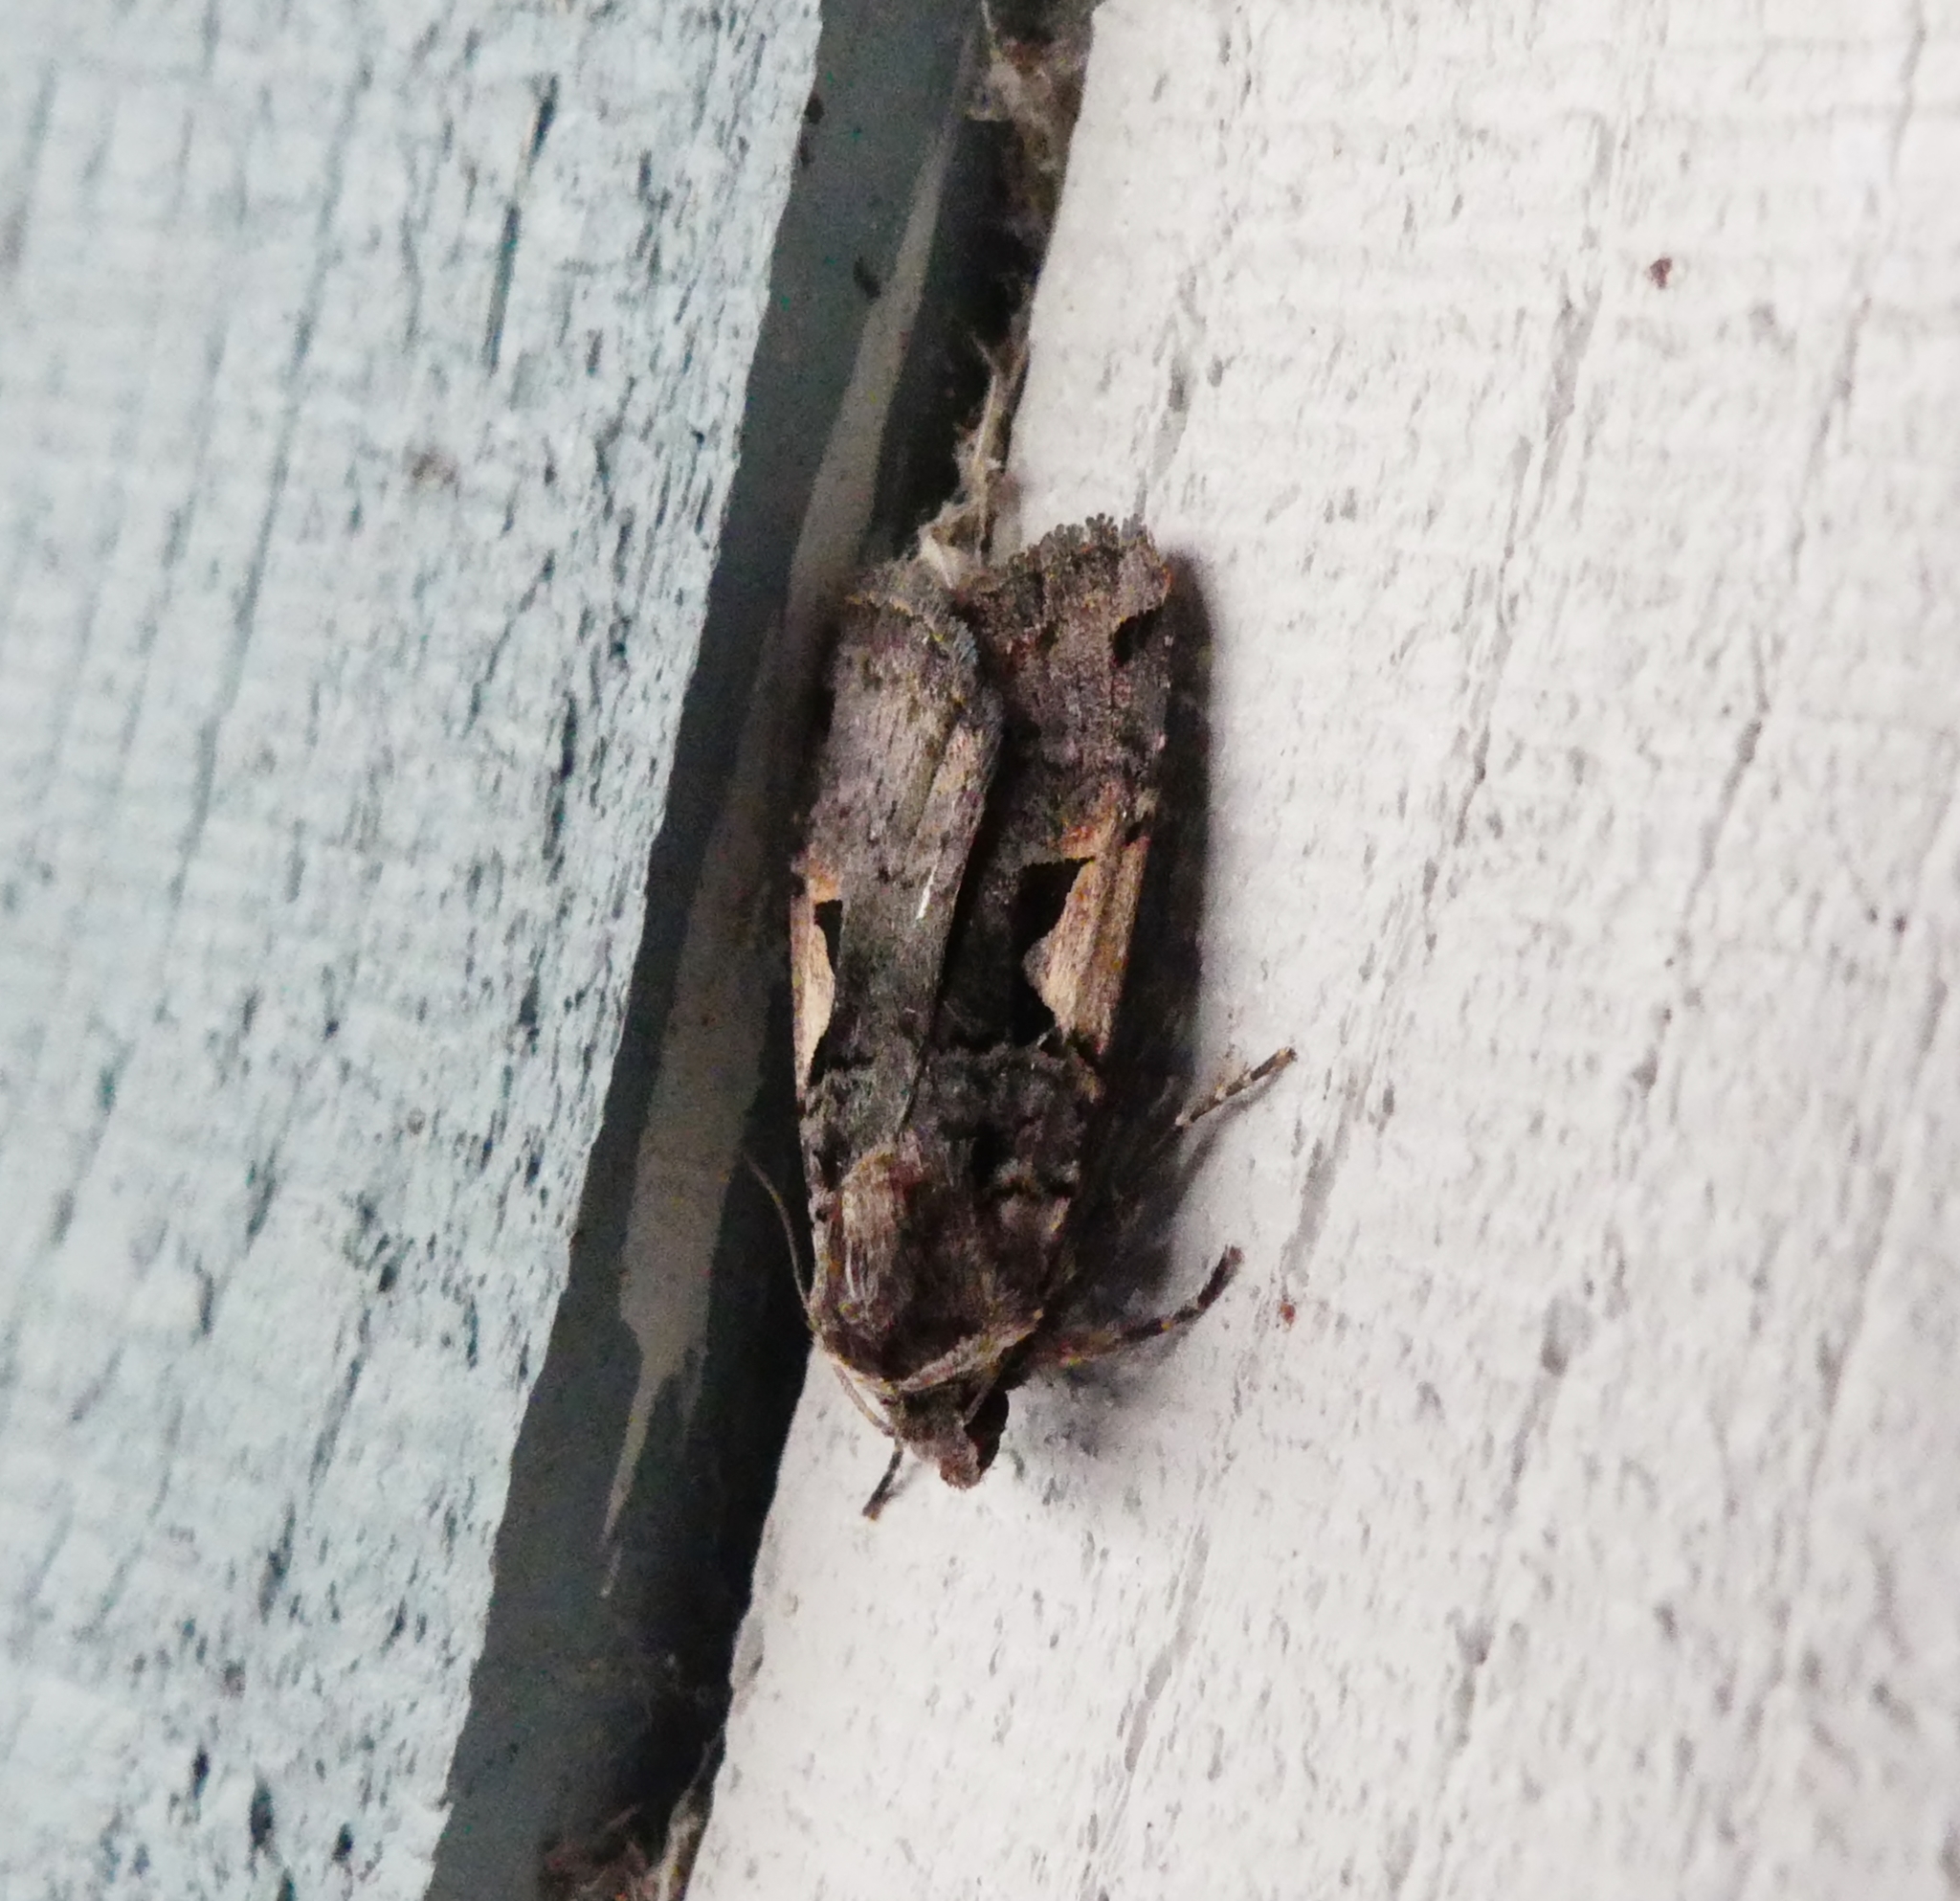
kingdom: Animalia
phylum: Arthropoda
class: Insecta
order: Lepidoptera
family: Noctuidae
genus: Xestia
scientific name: Xestia
